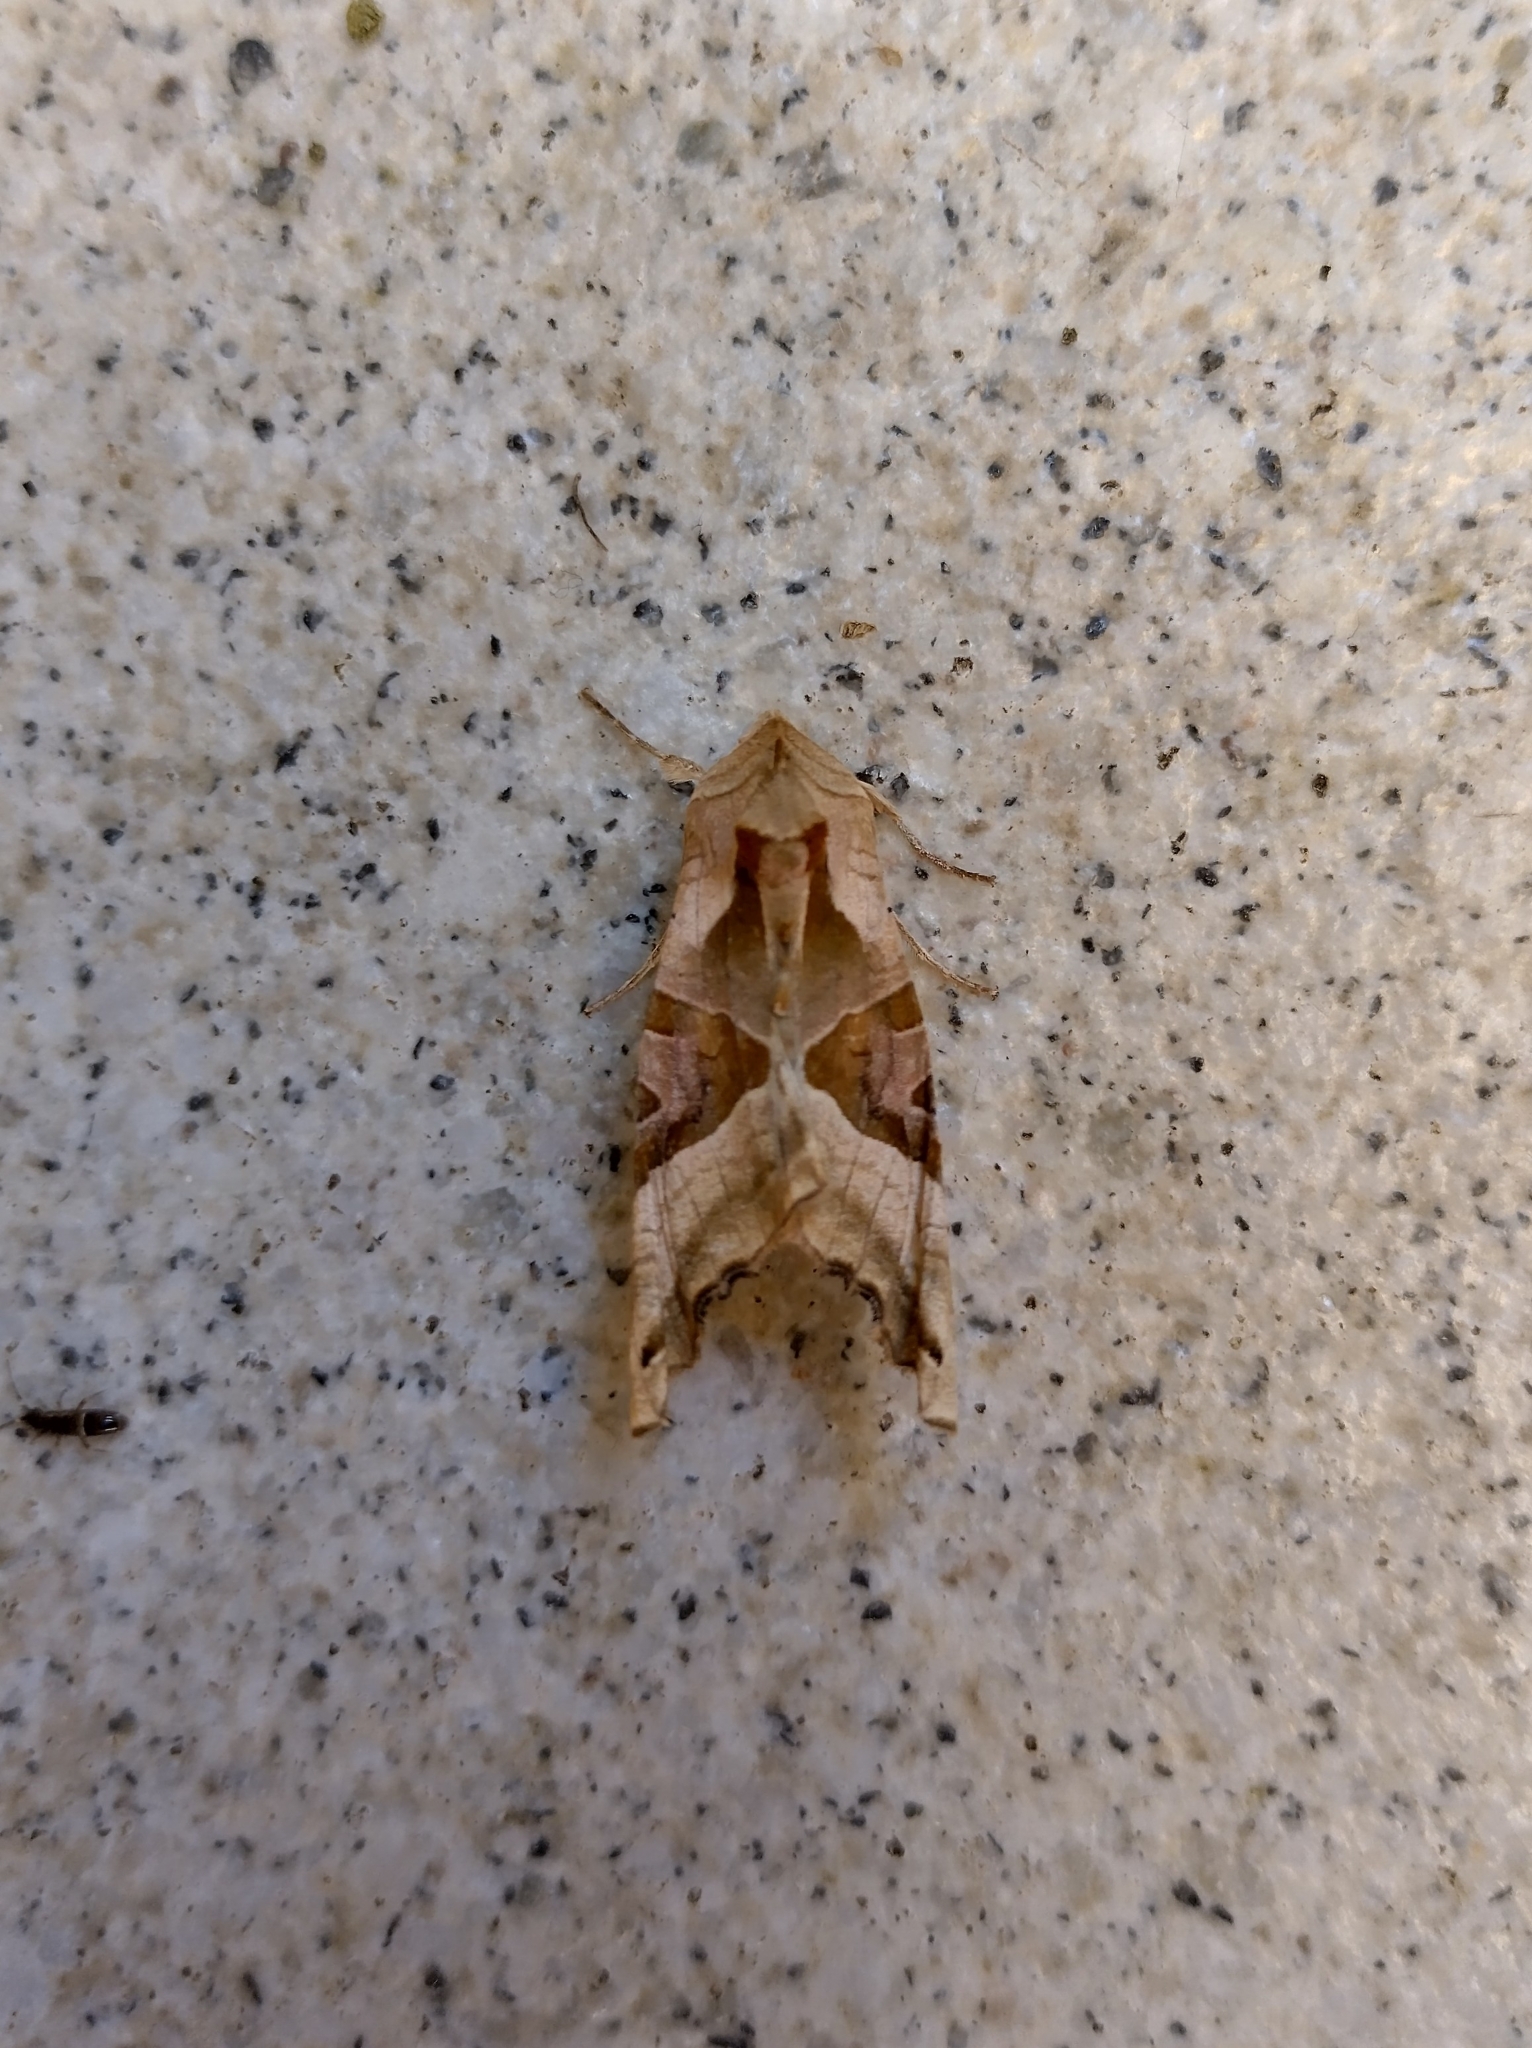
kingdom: Animalia
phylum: Arthropoda
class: Insecta
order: Lepidoptera
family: Noctuidae
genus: Phlogophora
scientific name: Phlogophora meticulosa
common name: Angle shades
